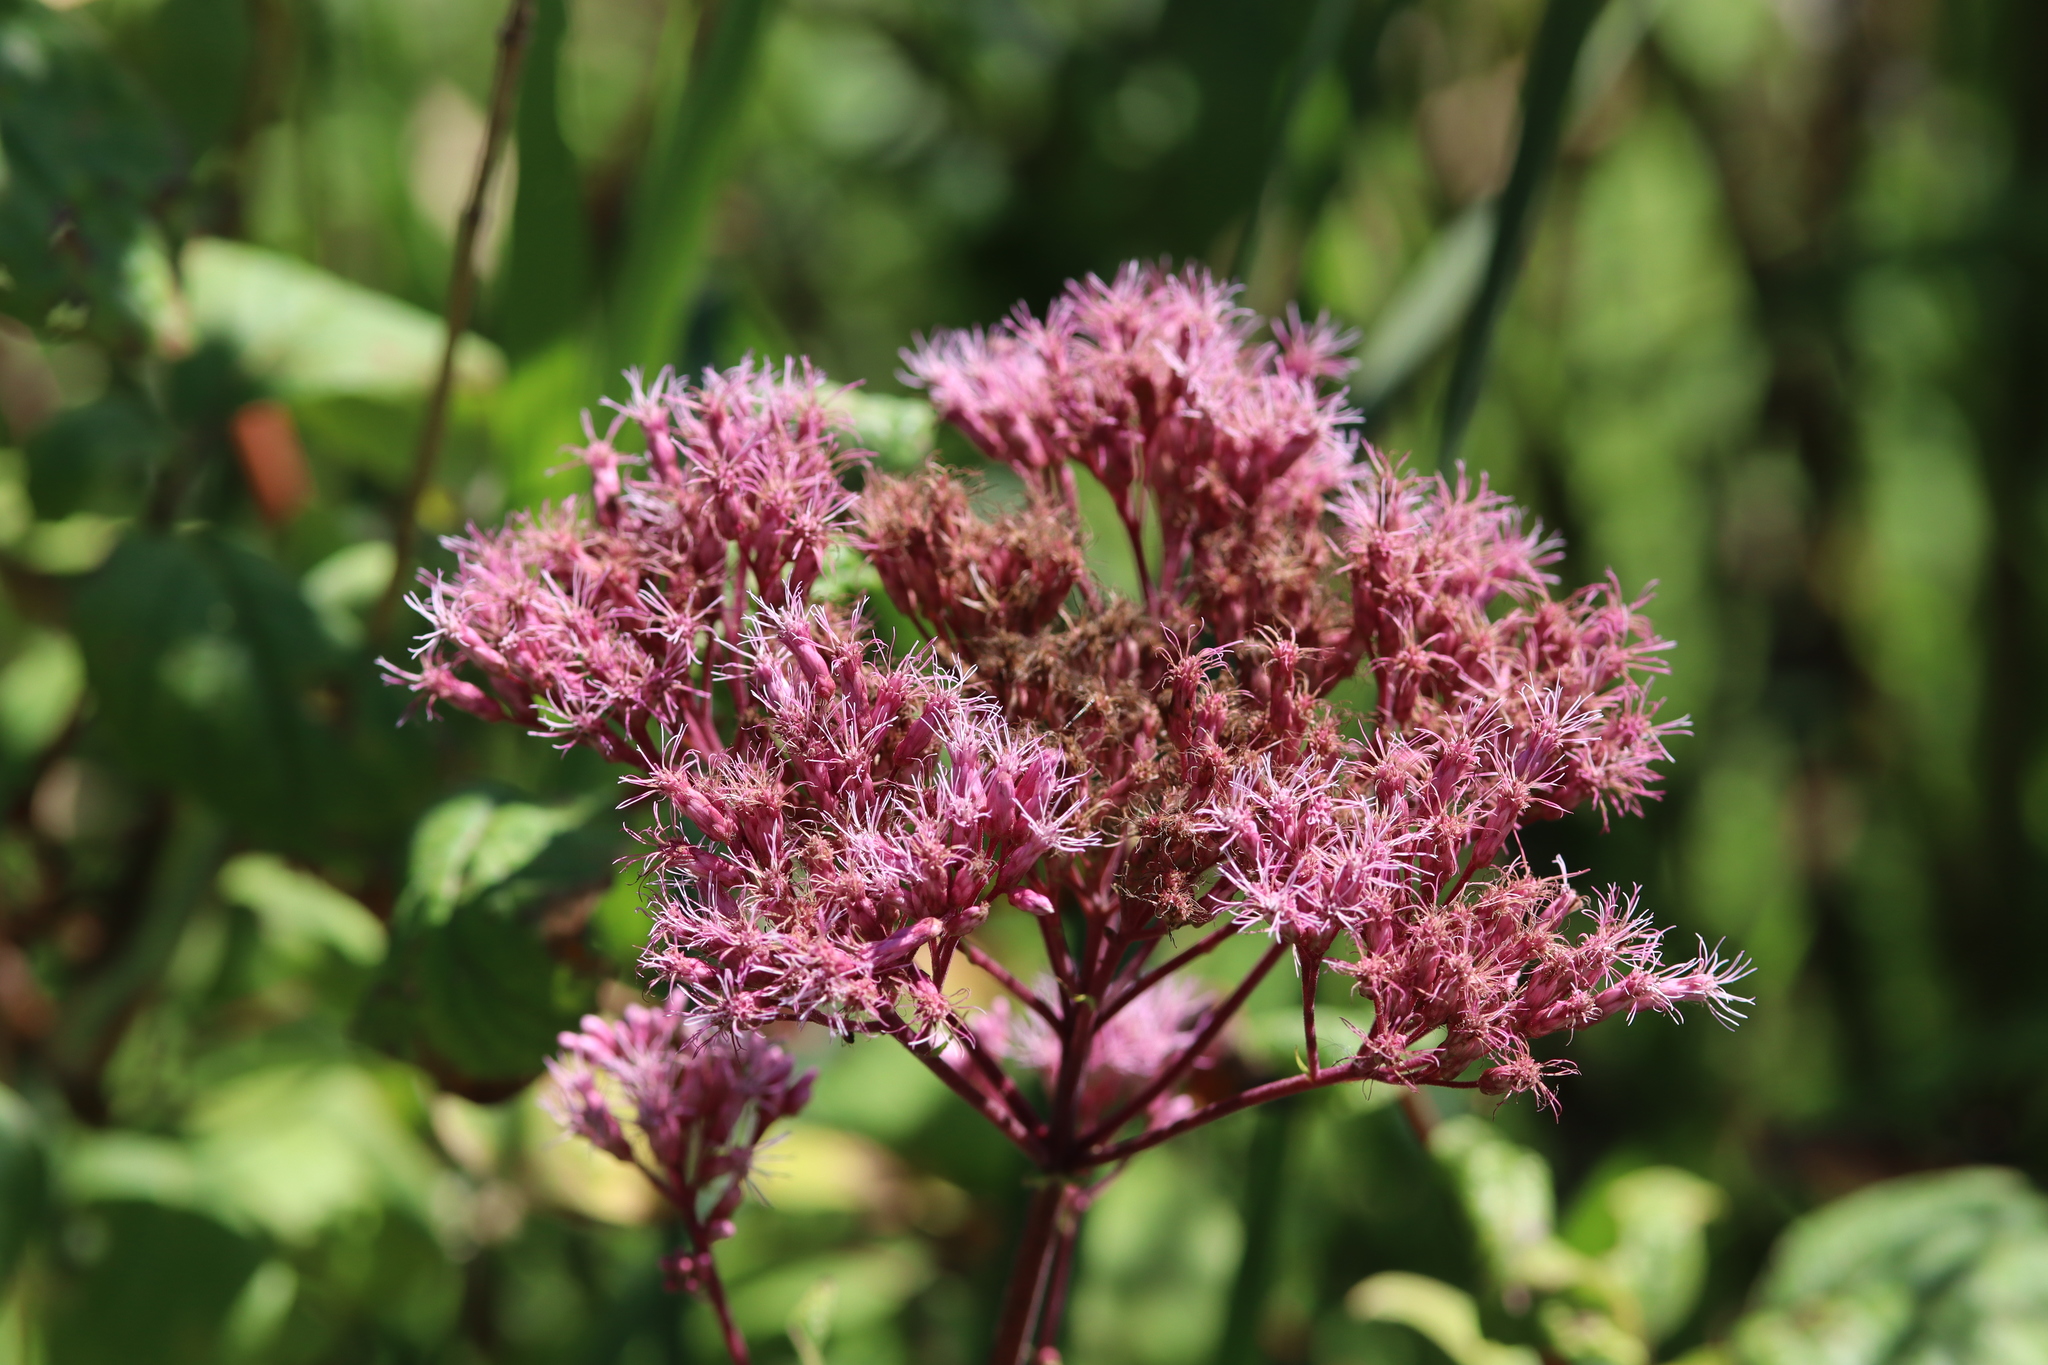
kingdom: Plantae
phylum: Tracheophyta
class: Magnoliopsida
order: Asterales
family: Asteraceae
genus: Eutrochium
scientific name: Eutrochium maculatum
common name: Spotted joe pye weed
